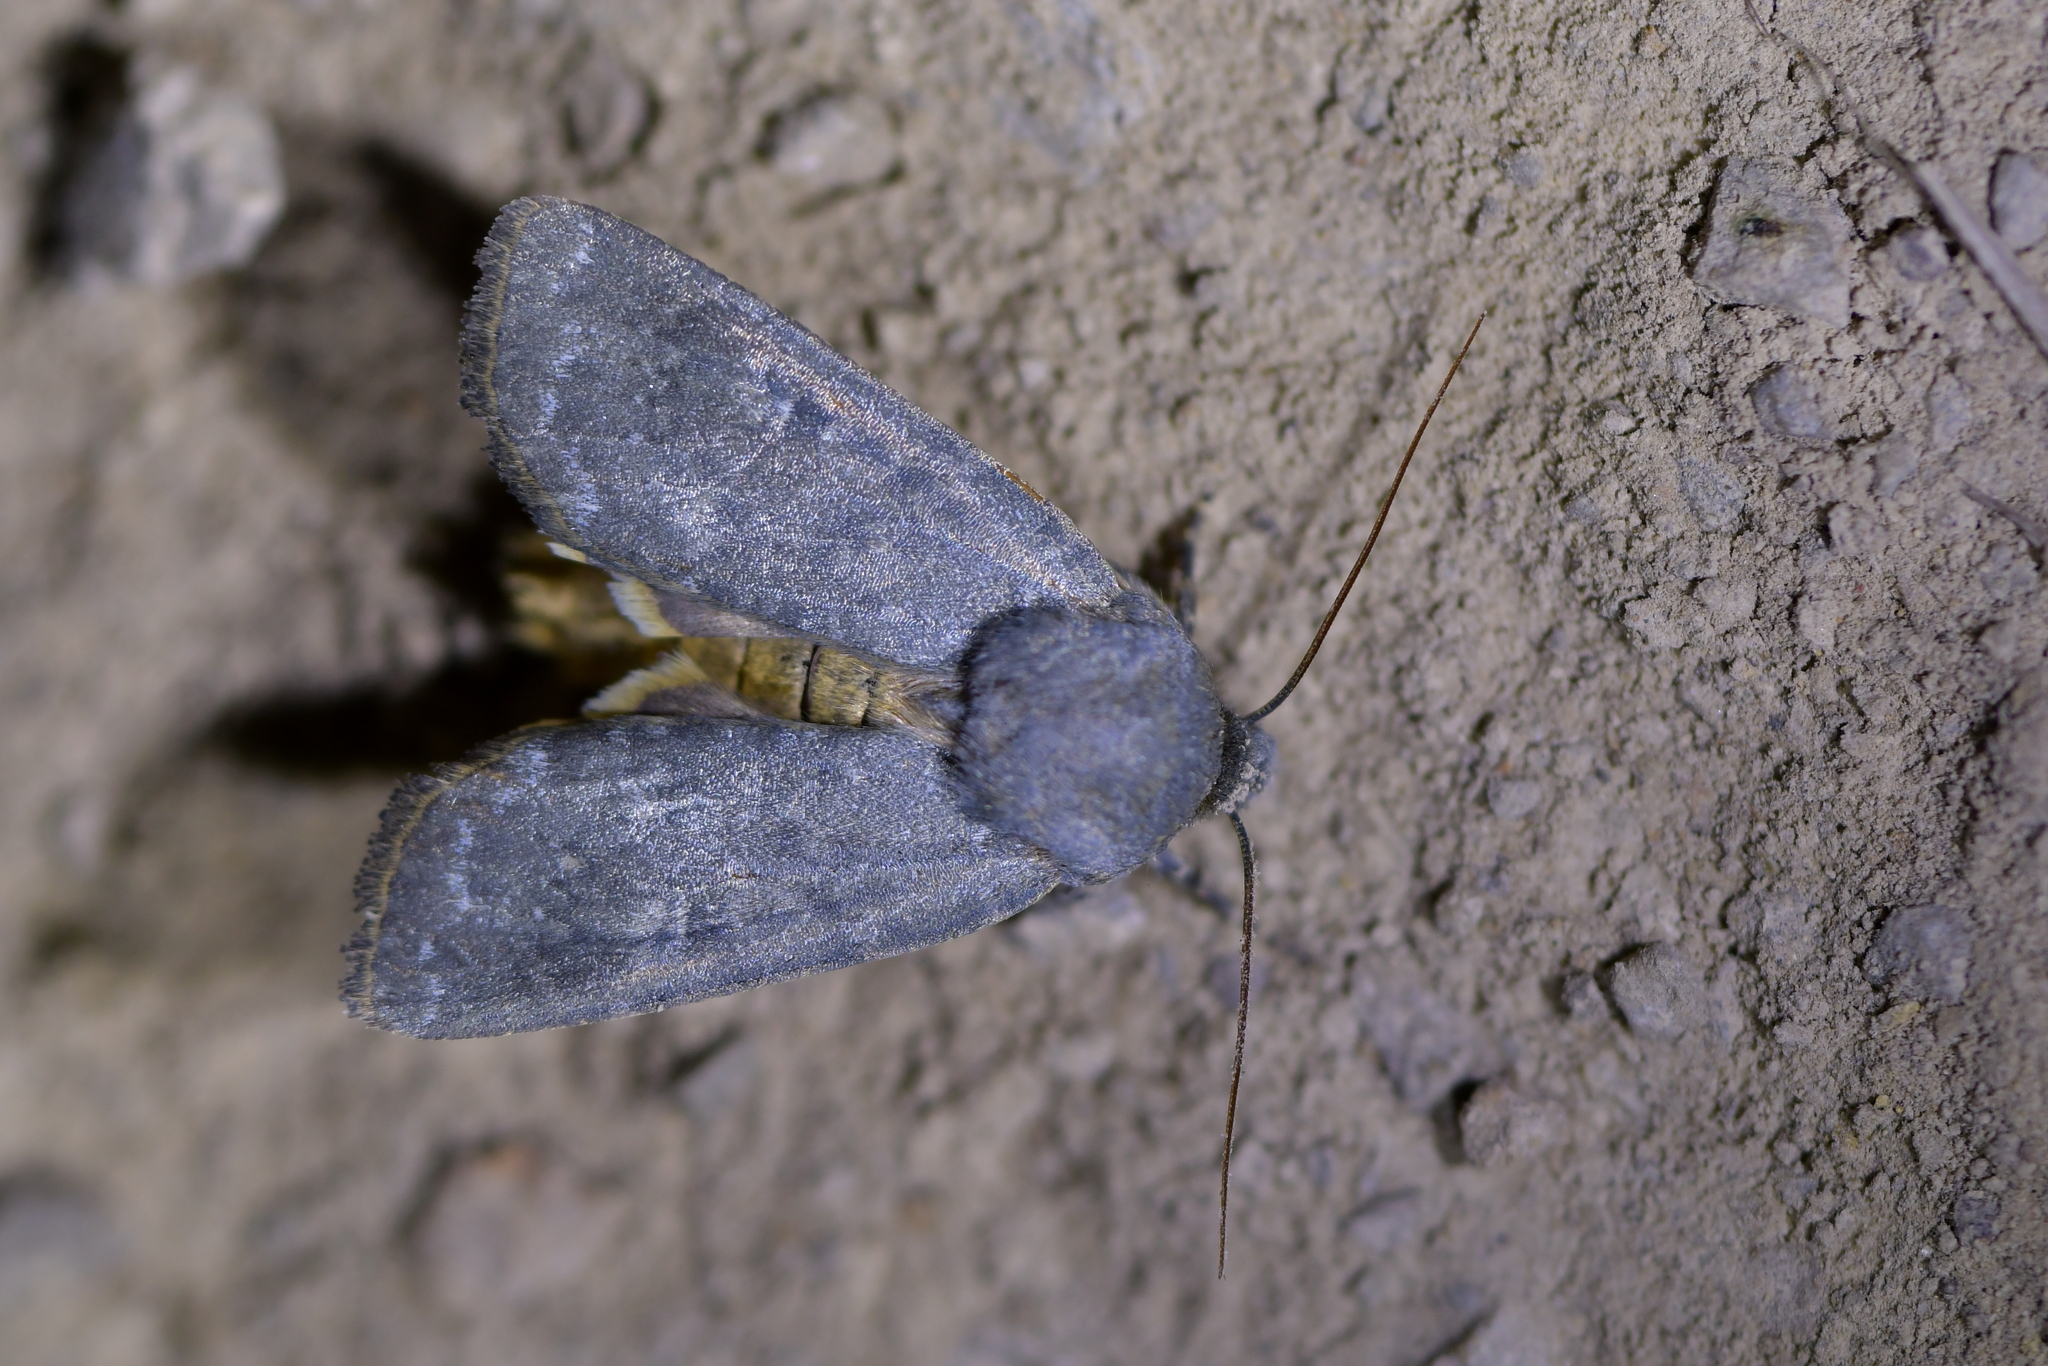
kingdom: Animalia
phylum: Arthropoda
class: Insecta
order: Lepidoptera
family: Noctuidae
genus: Physetica
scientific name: Physetica caerulea
